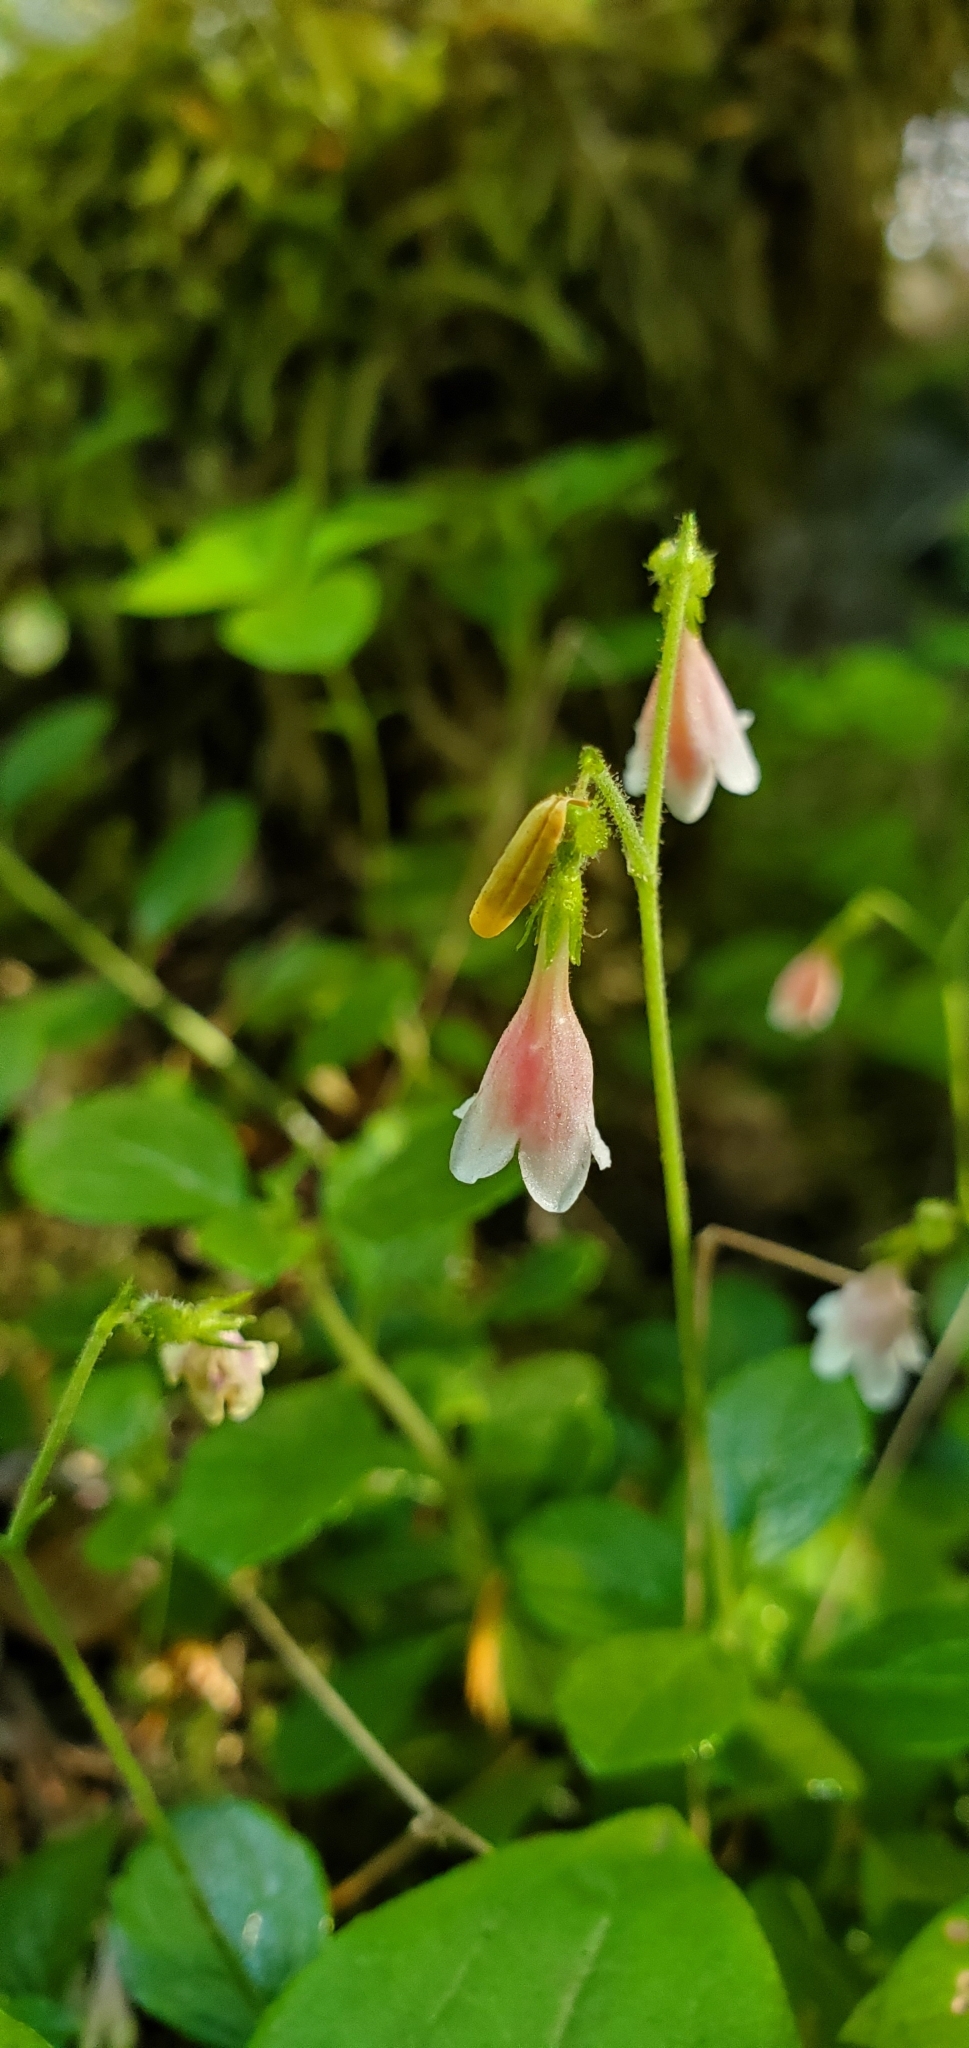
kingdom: Plantae
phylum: Tracheophyta
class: Magnoliopsida
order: Dipsacales
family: Caprifoliaceae
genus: Linnaea
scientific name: Linnaea borealis
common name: Twinflower
